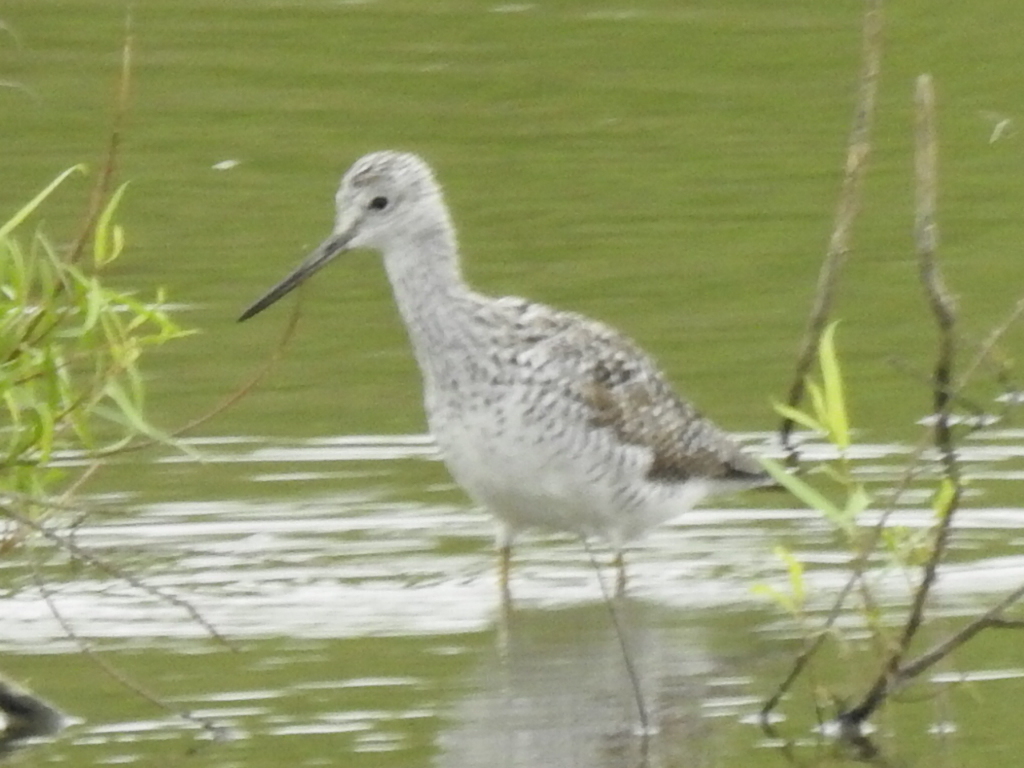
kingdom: Animalia
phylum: Chordata
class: Aves
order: Charadriiformes
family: Scolopacidae
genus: Tringa
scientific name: Tringa melanoleuca
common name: Greater yellowlegs
